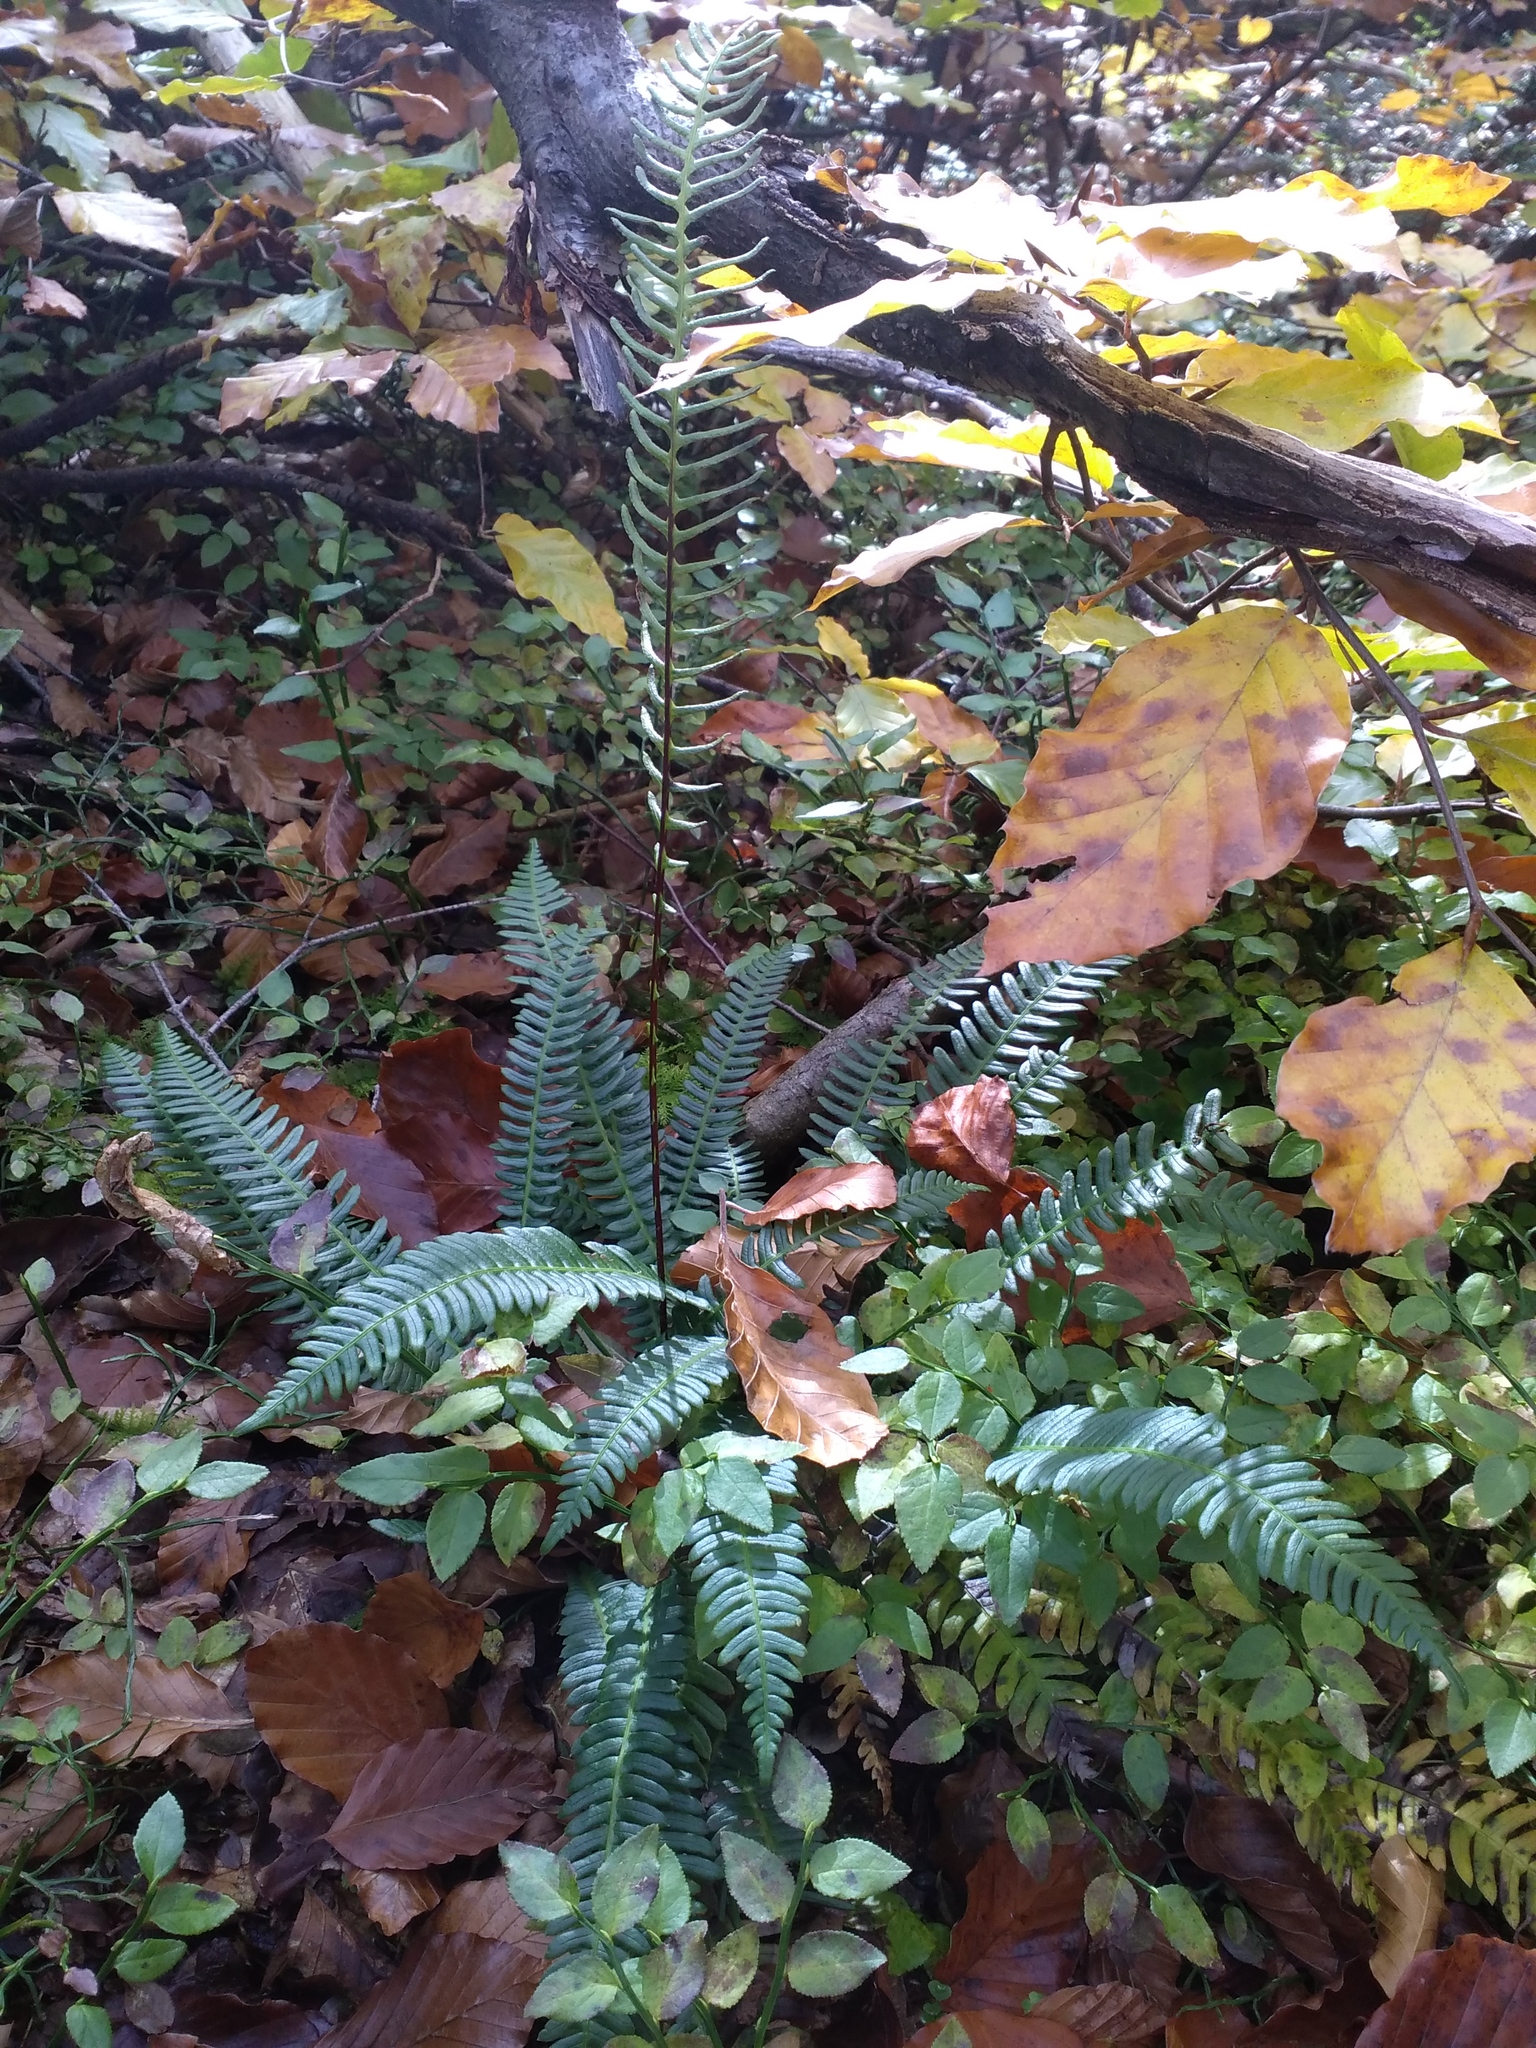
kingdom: Plantae
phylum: Tracheophyta
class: Polypodiopsida
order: Polypodiales
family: Blechnaceae
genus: Struthiopteris
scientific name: Struthiopteris spicant
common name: Deer fern
